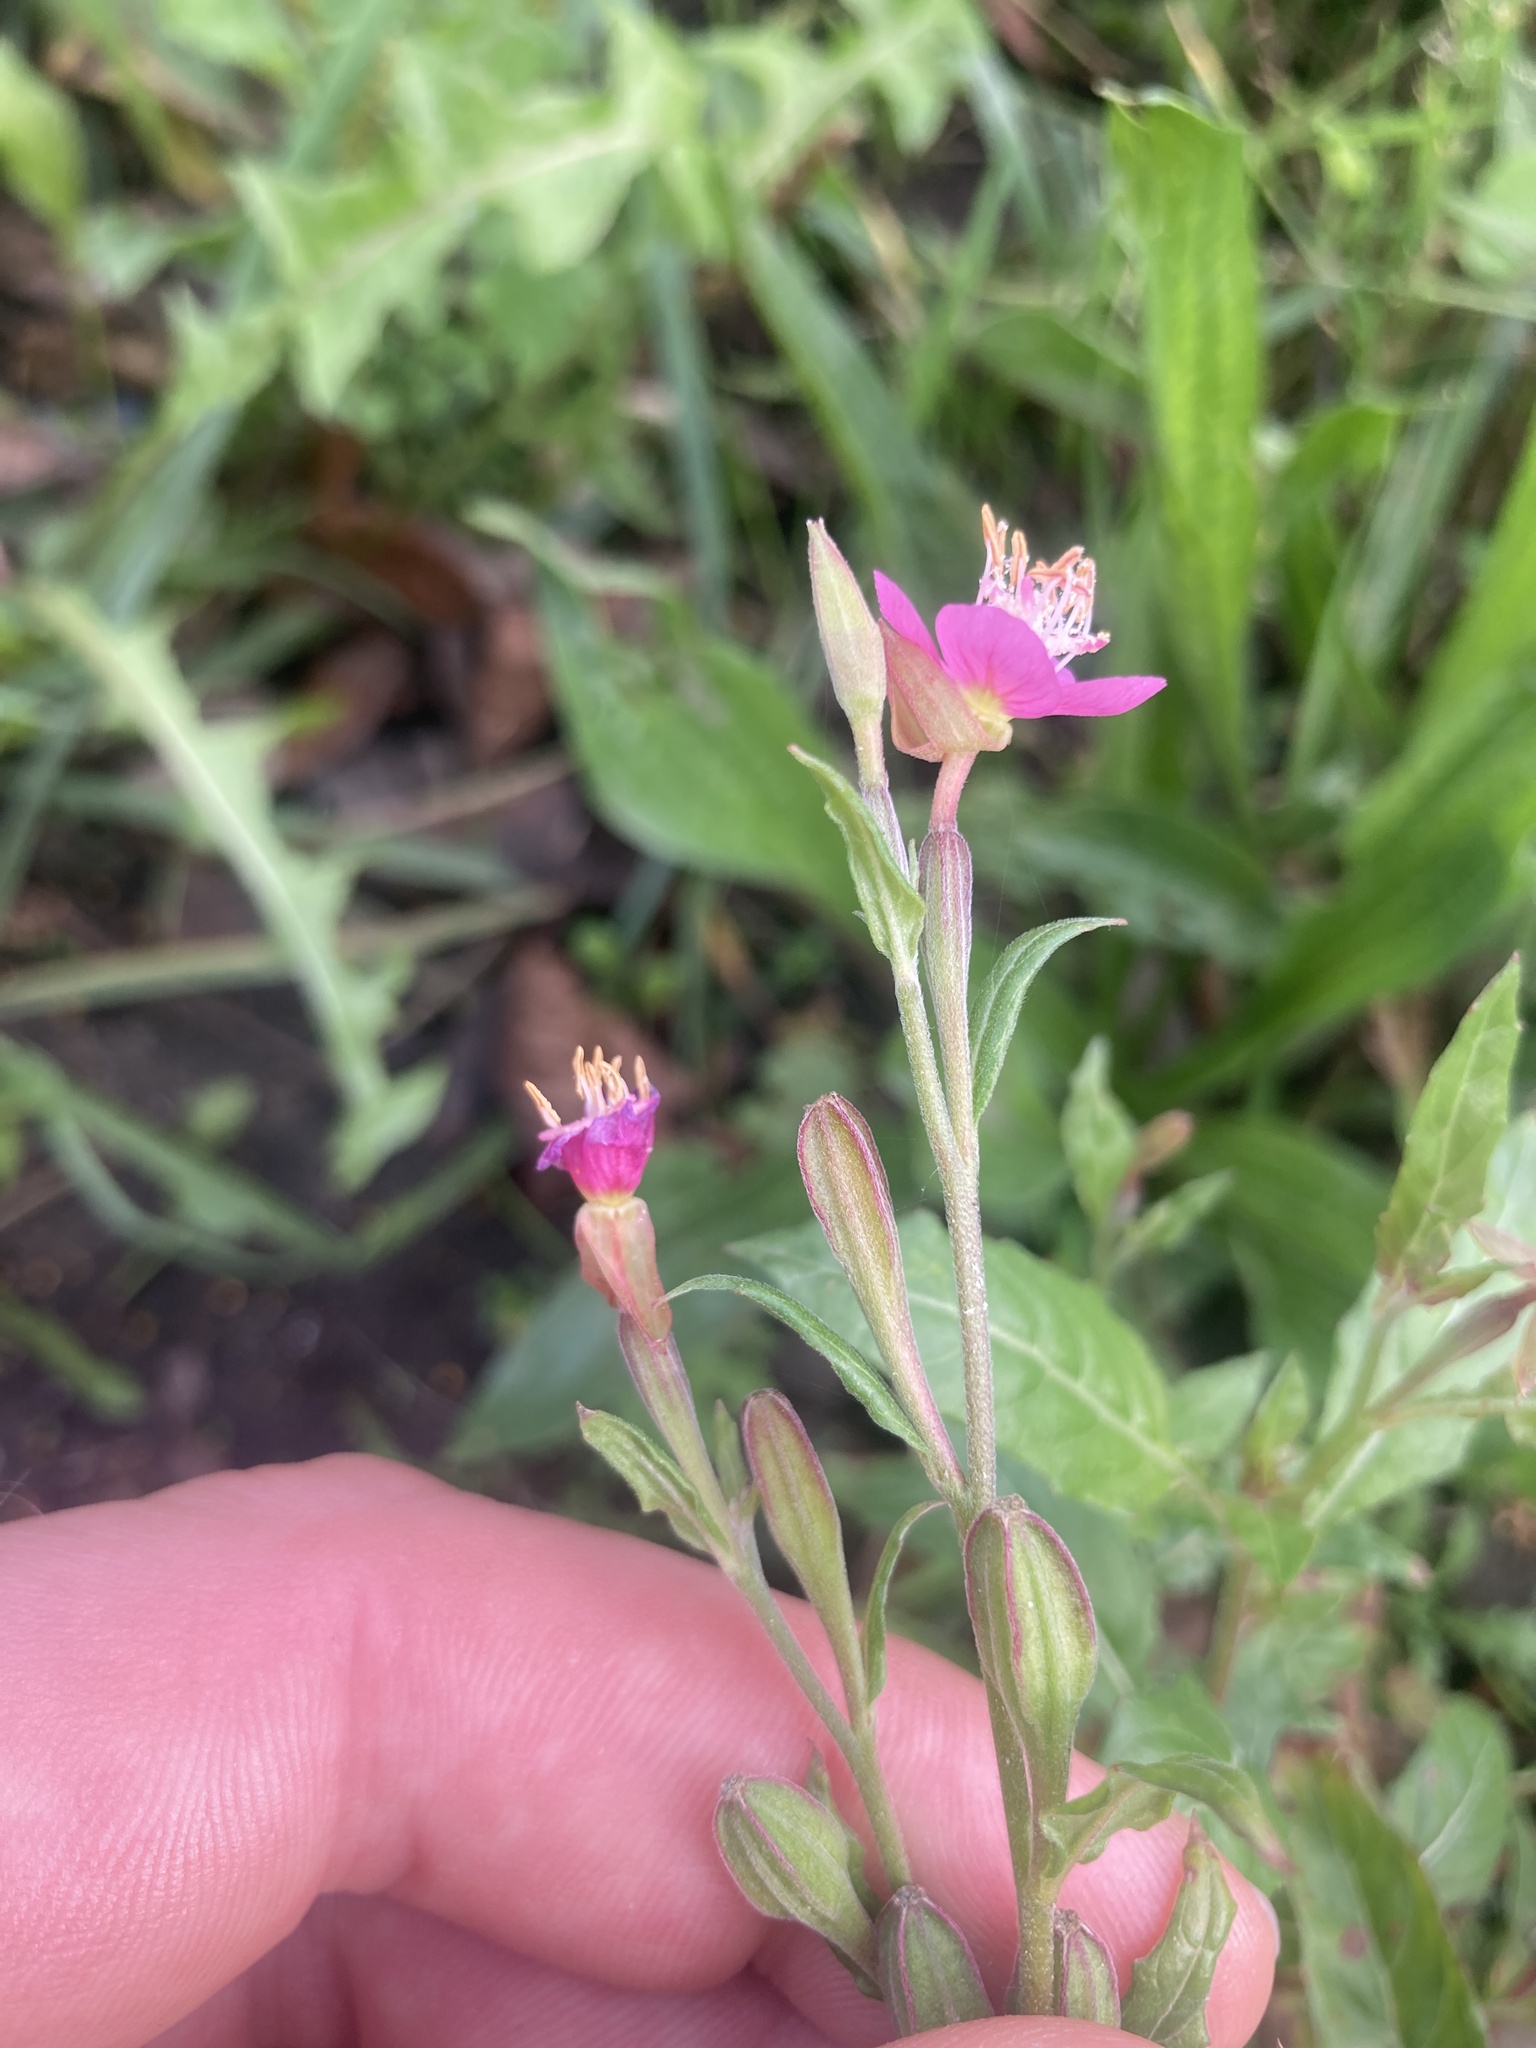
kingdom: Plantae
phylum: Tracheophyta
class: Magnoliopsida
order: Myrtales
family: Onagraceae
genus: Oenothera
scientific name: Oenothera rosea
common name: Rosy evening-primrose
